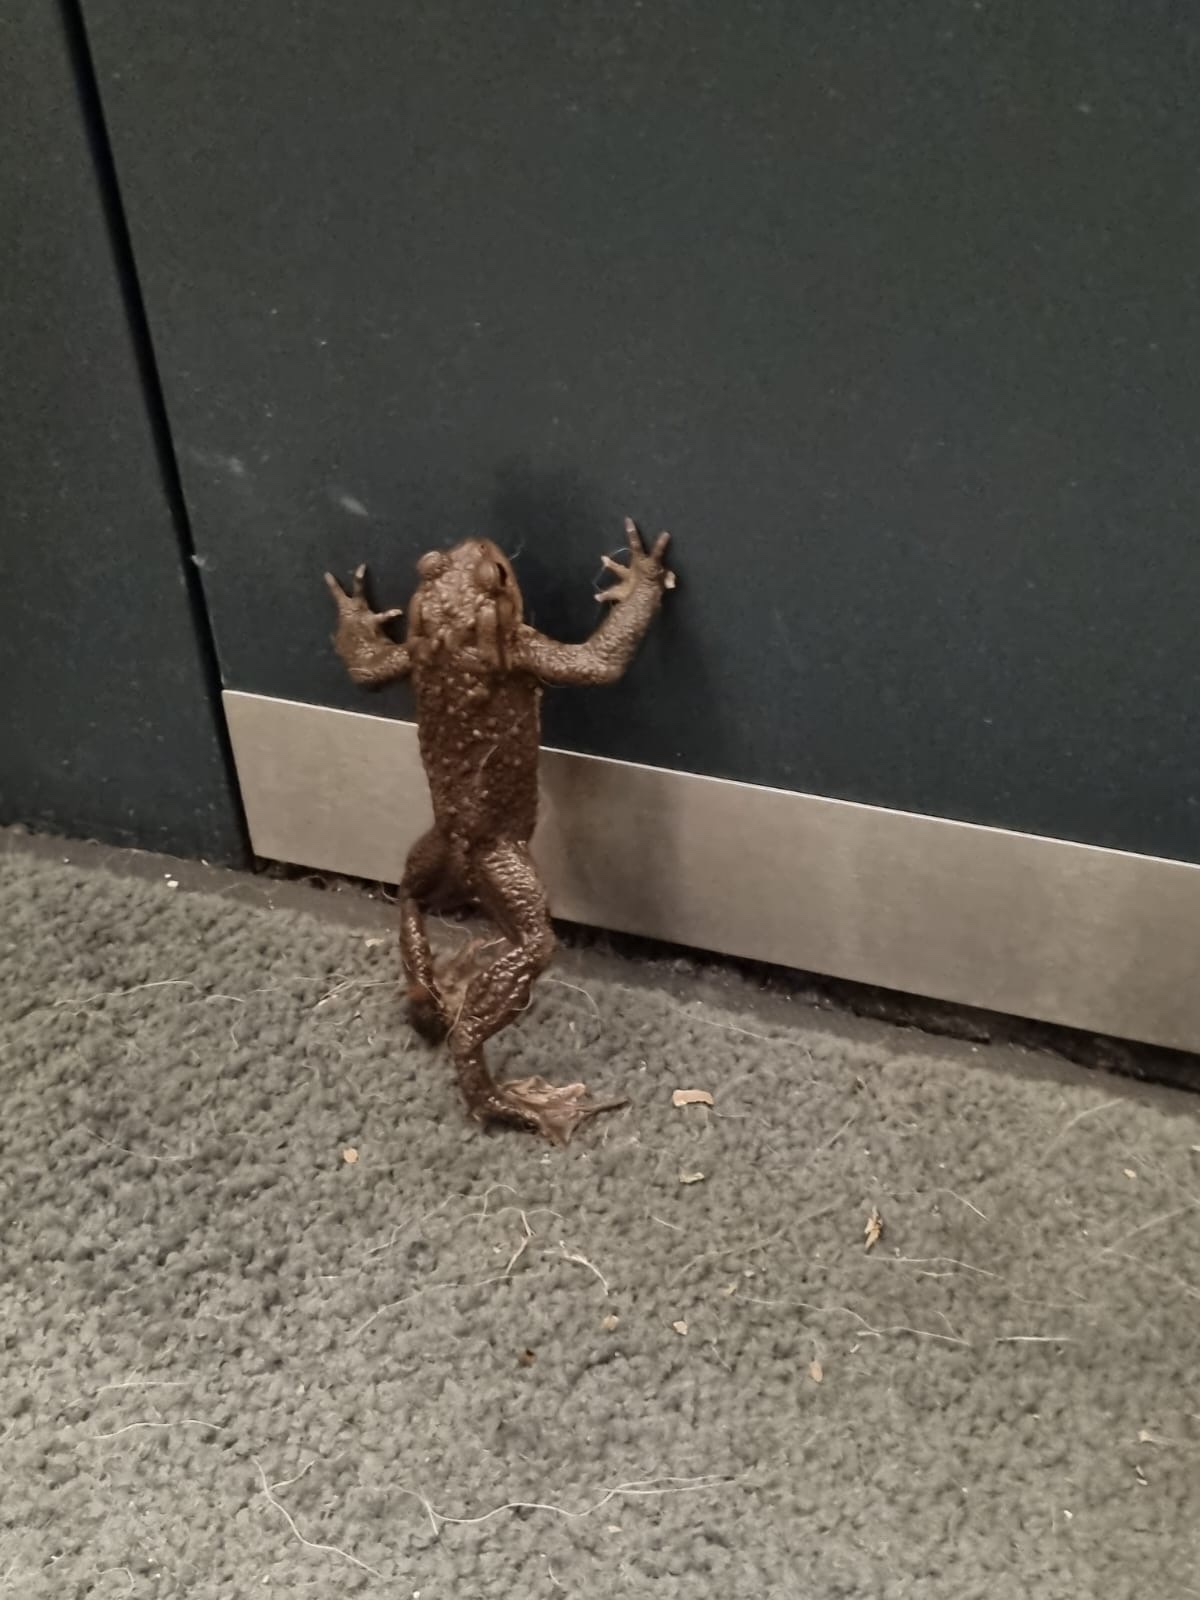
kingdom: Animalia
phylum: Chordata
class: Amphibia
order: Anura
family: Bufonidae
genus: Bufo
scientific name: Bufo bufo
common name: Common toad
